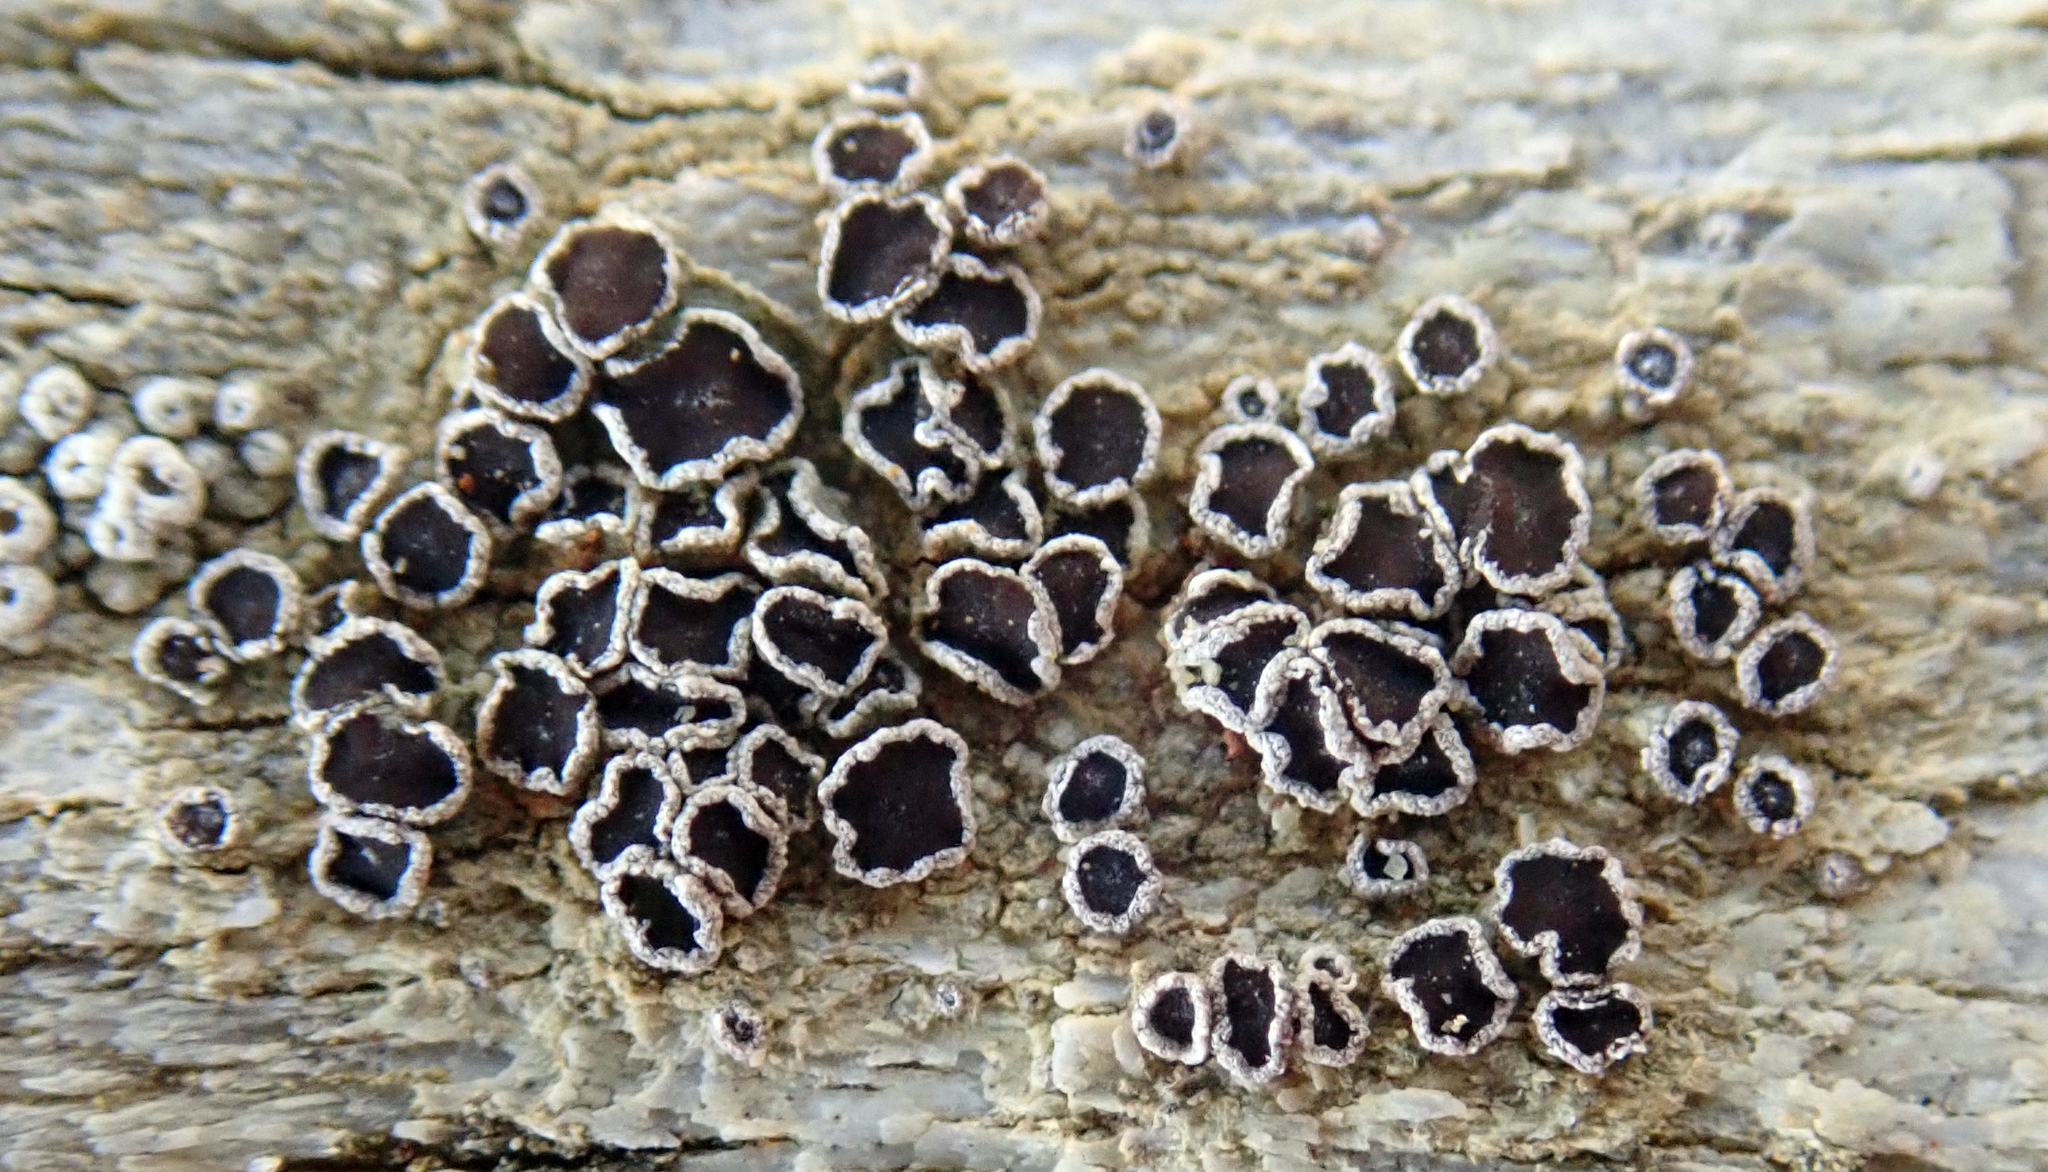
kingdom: Fungi
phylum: Ascomycota
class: Lecanoromycetes
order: Lecanorales
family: Lecanoraceae
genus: Lecanora
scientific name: Lecanora xylophila
